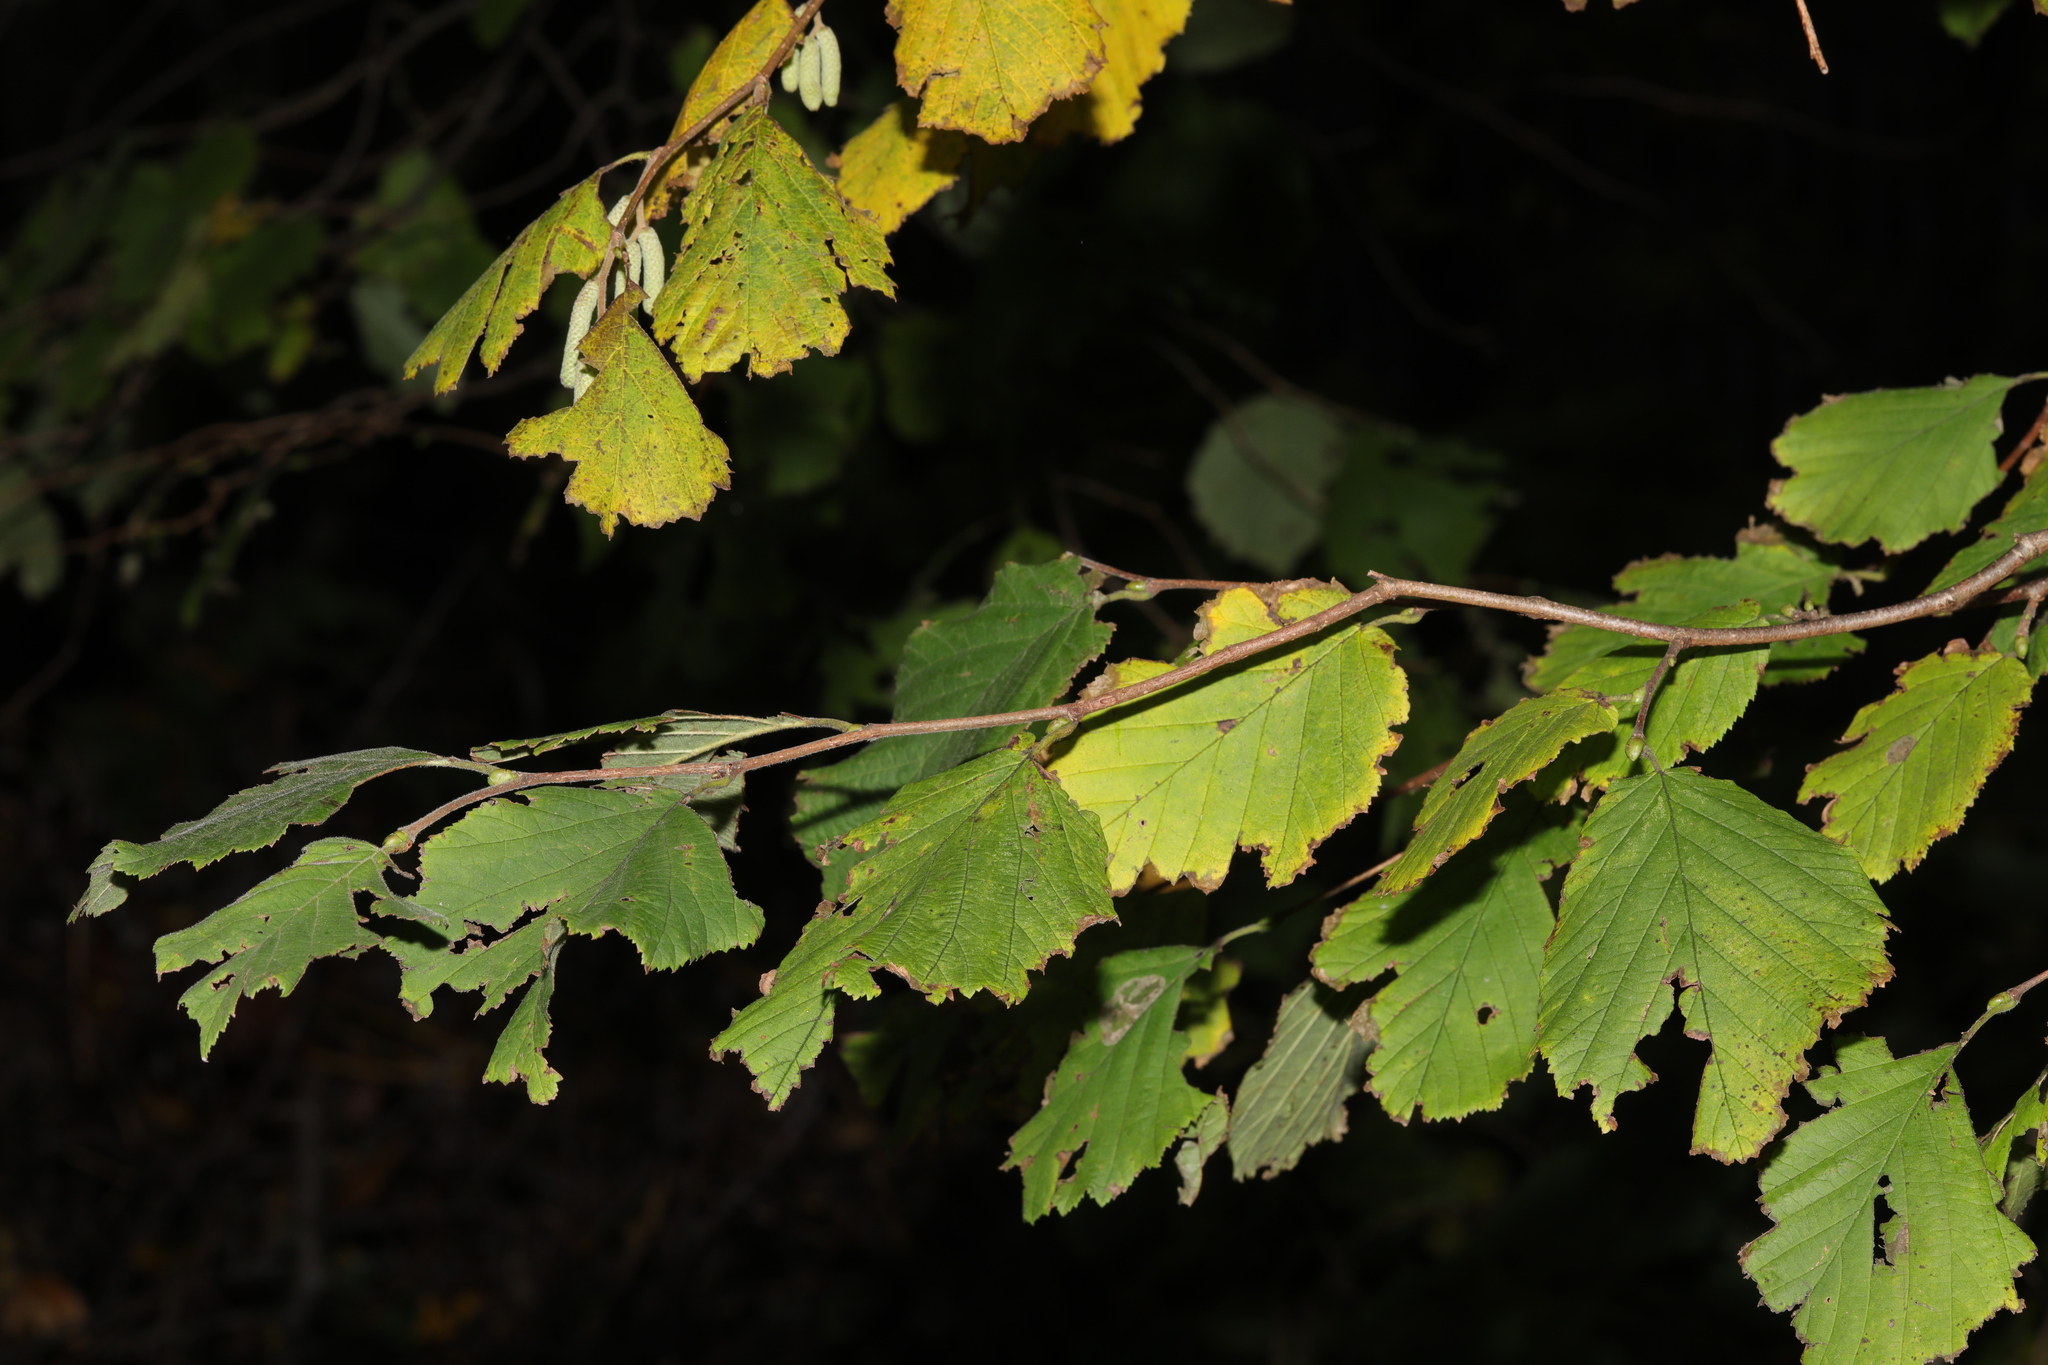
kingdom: Plantae
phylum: Tracheophyta
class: Magnoliopsida
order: Fagales
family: Betulaceae
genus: Corylus
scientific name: Corylus avellana
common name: European hazel
